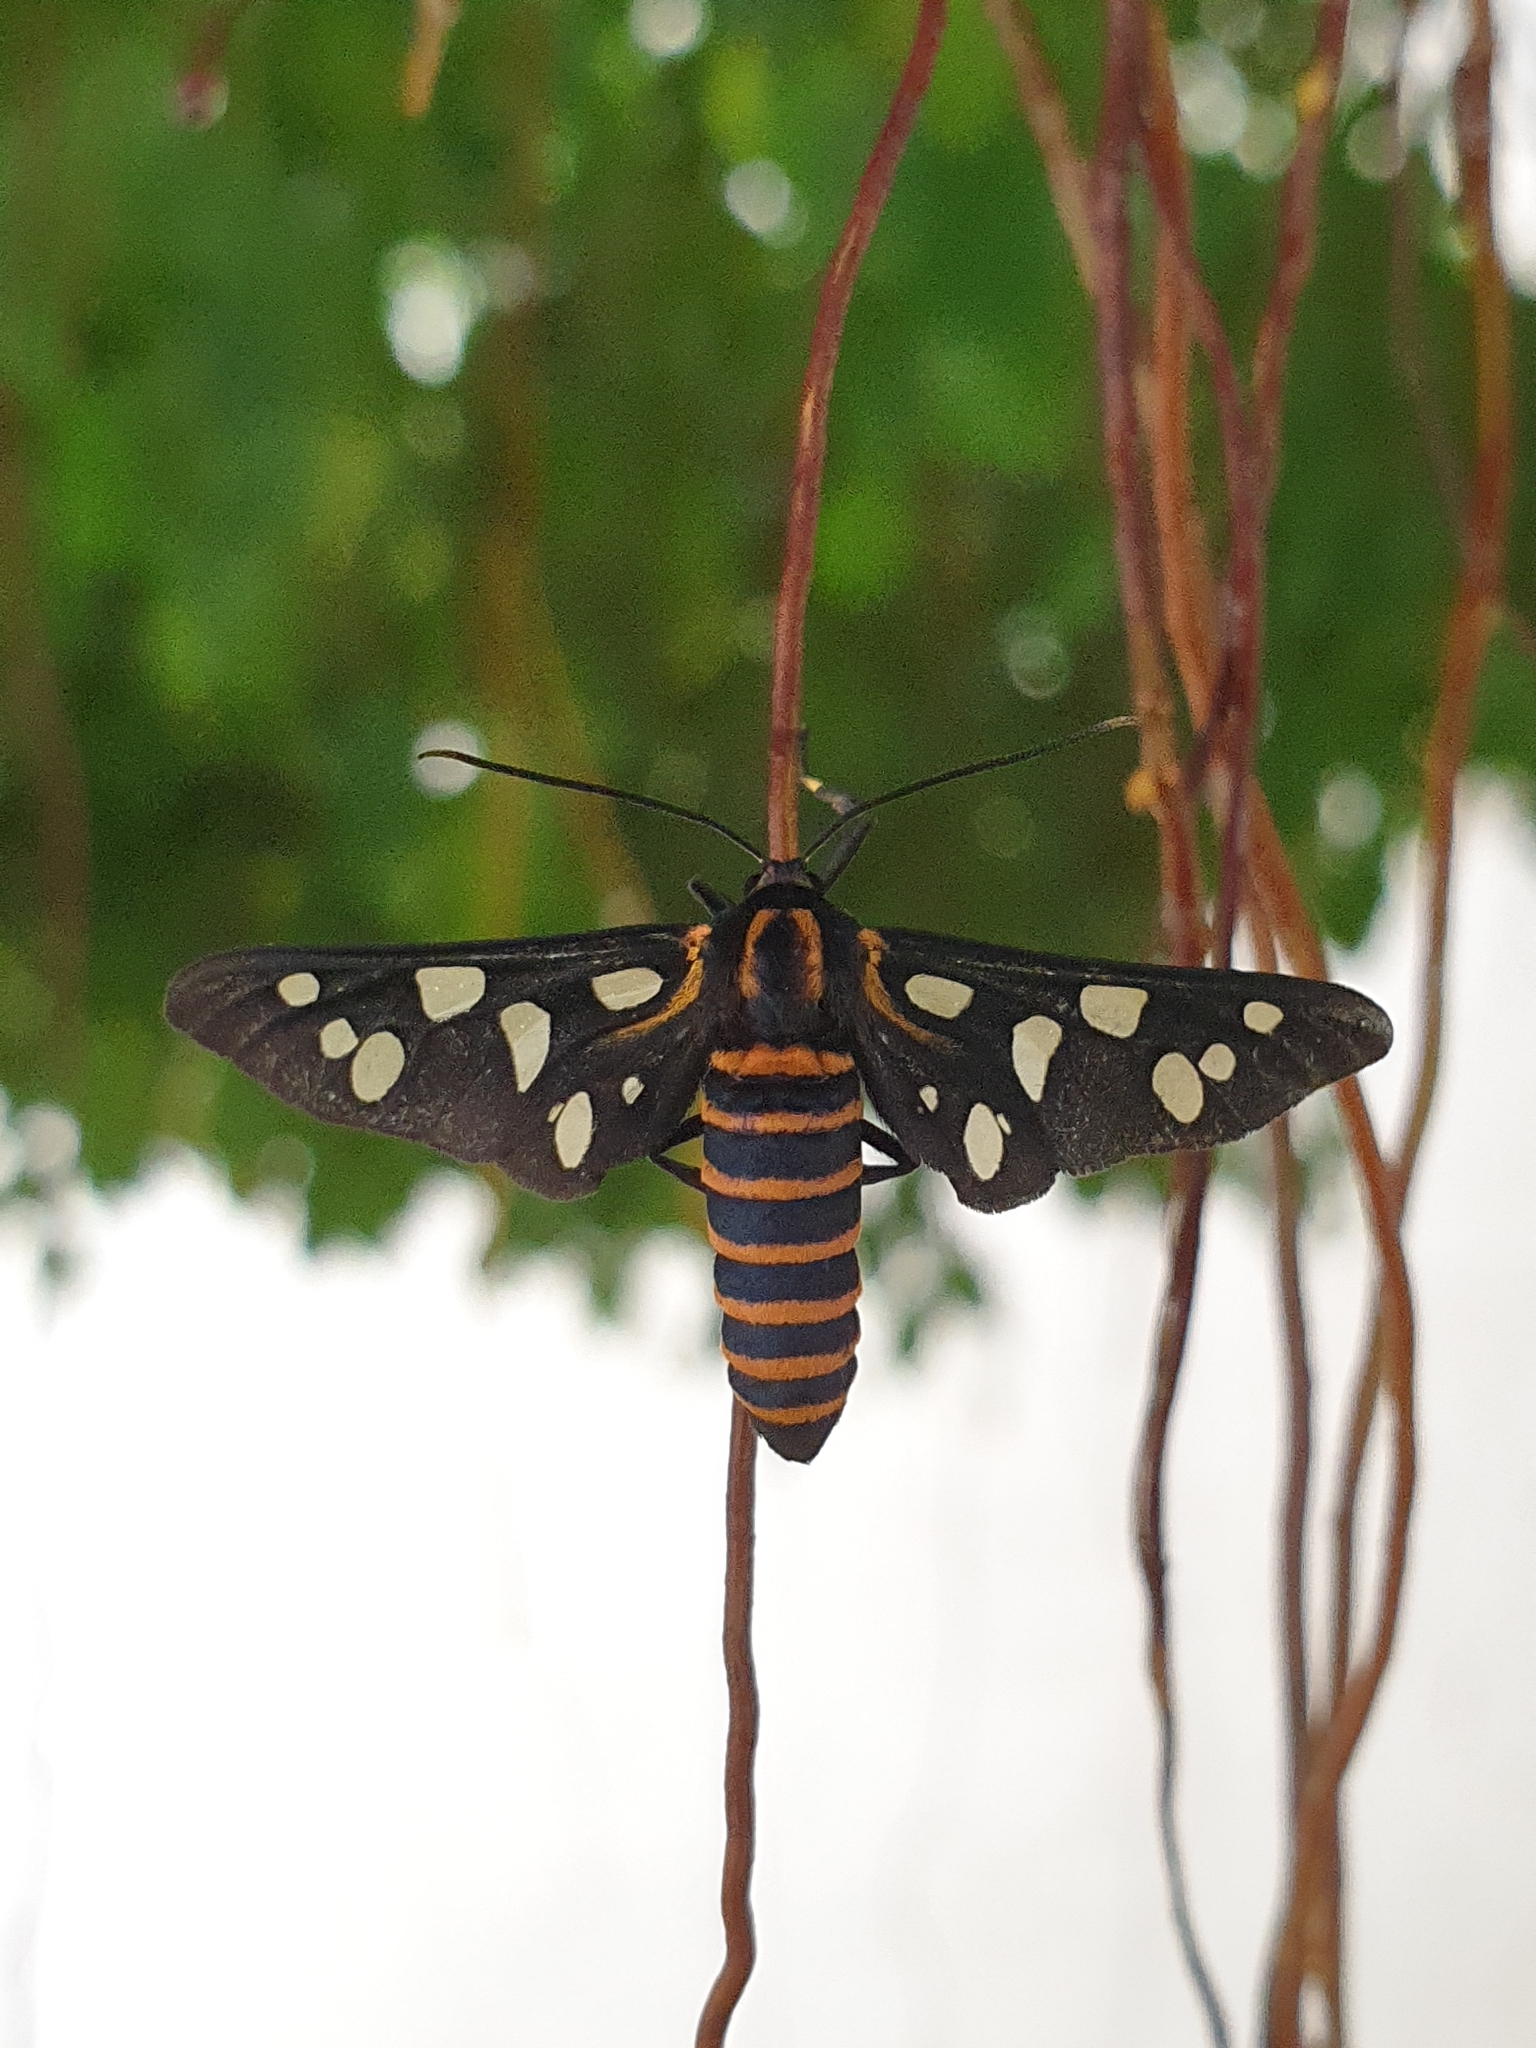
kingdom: Animalia
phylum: Arthropoda
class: Insecta
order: Lepidoptera
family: Erebidae
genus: Amata
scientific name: Amata passalis
